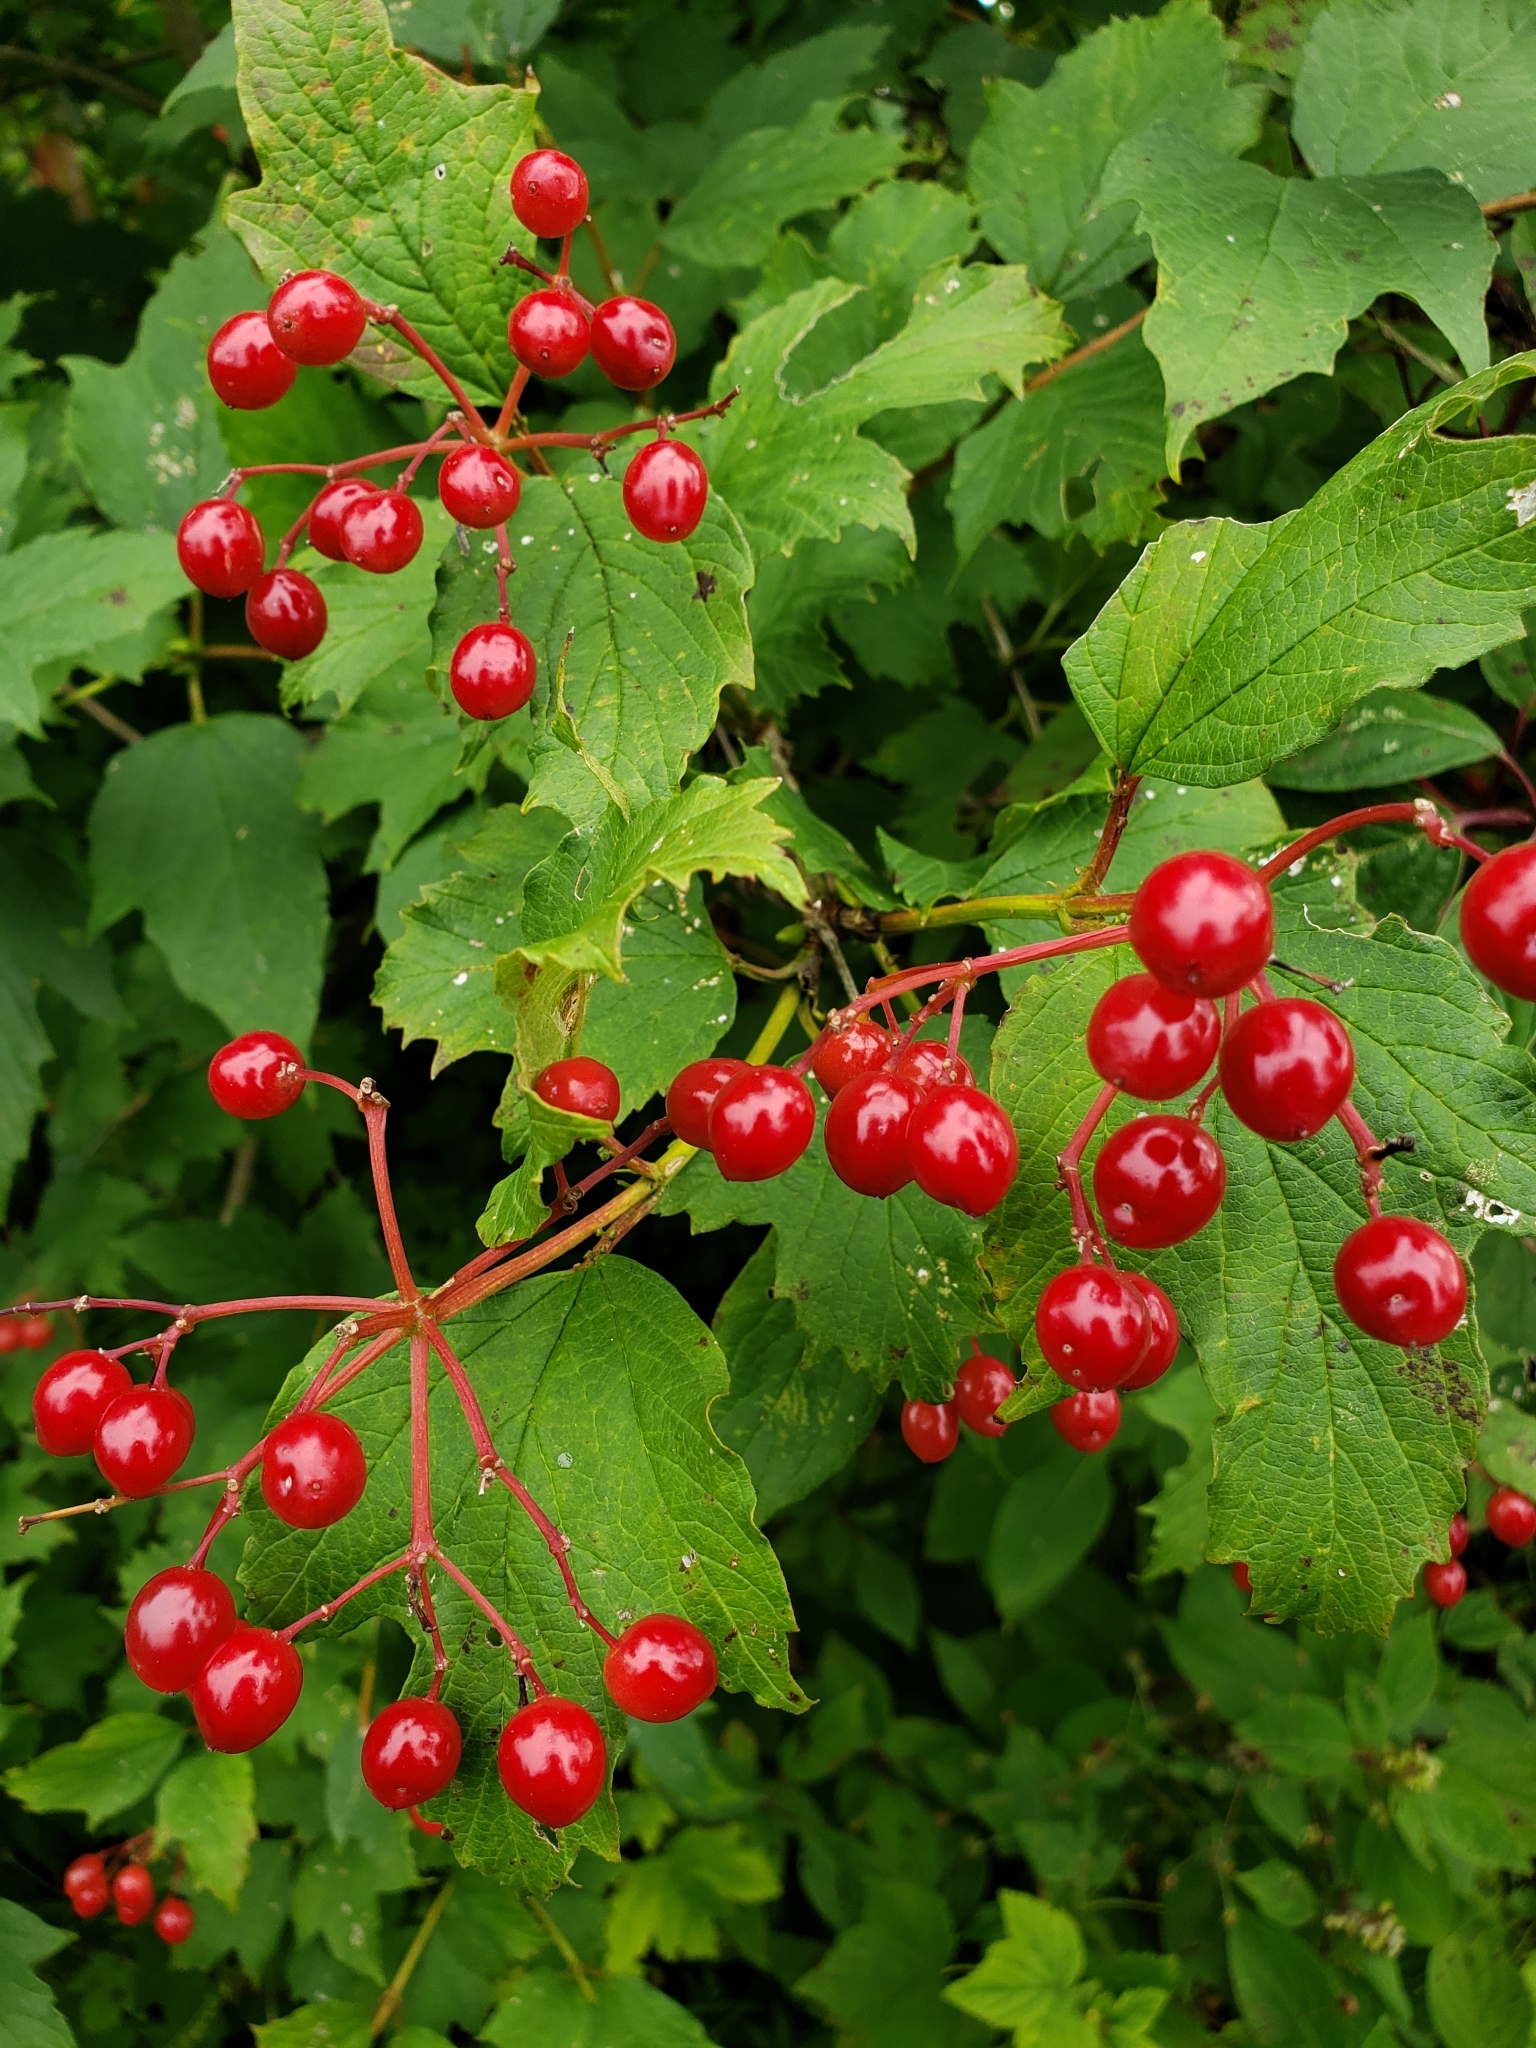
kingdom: Plantae
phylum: Tracheophyta
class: Magnoliopsida
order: Dipsacales
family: Viburnaceae
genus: Viburnum
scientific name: Viburnum opulus
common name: Guelder-rose
